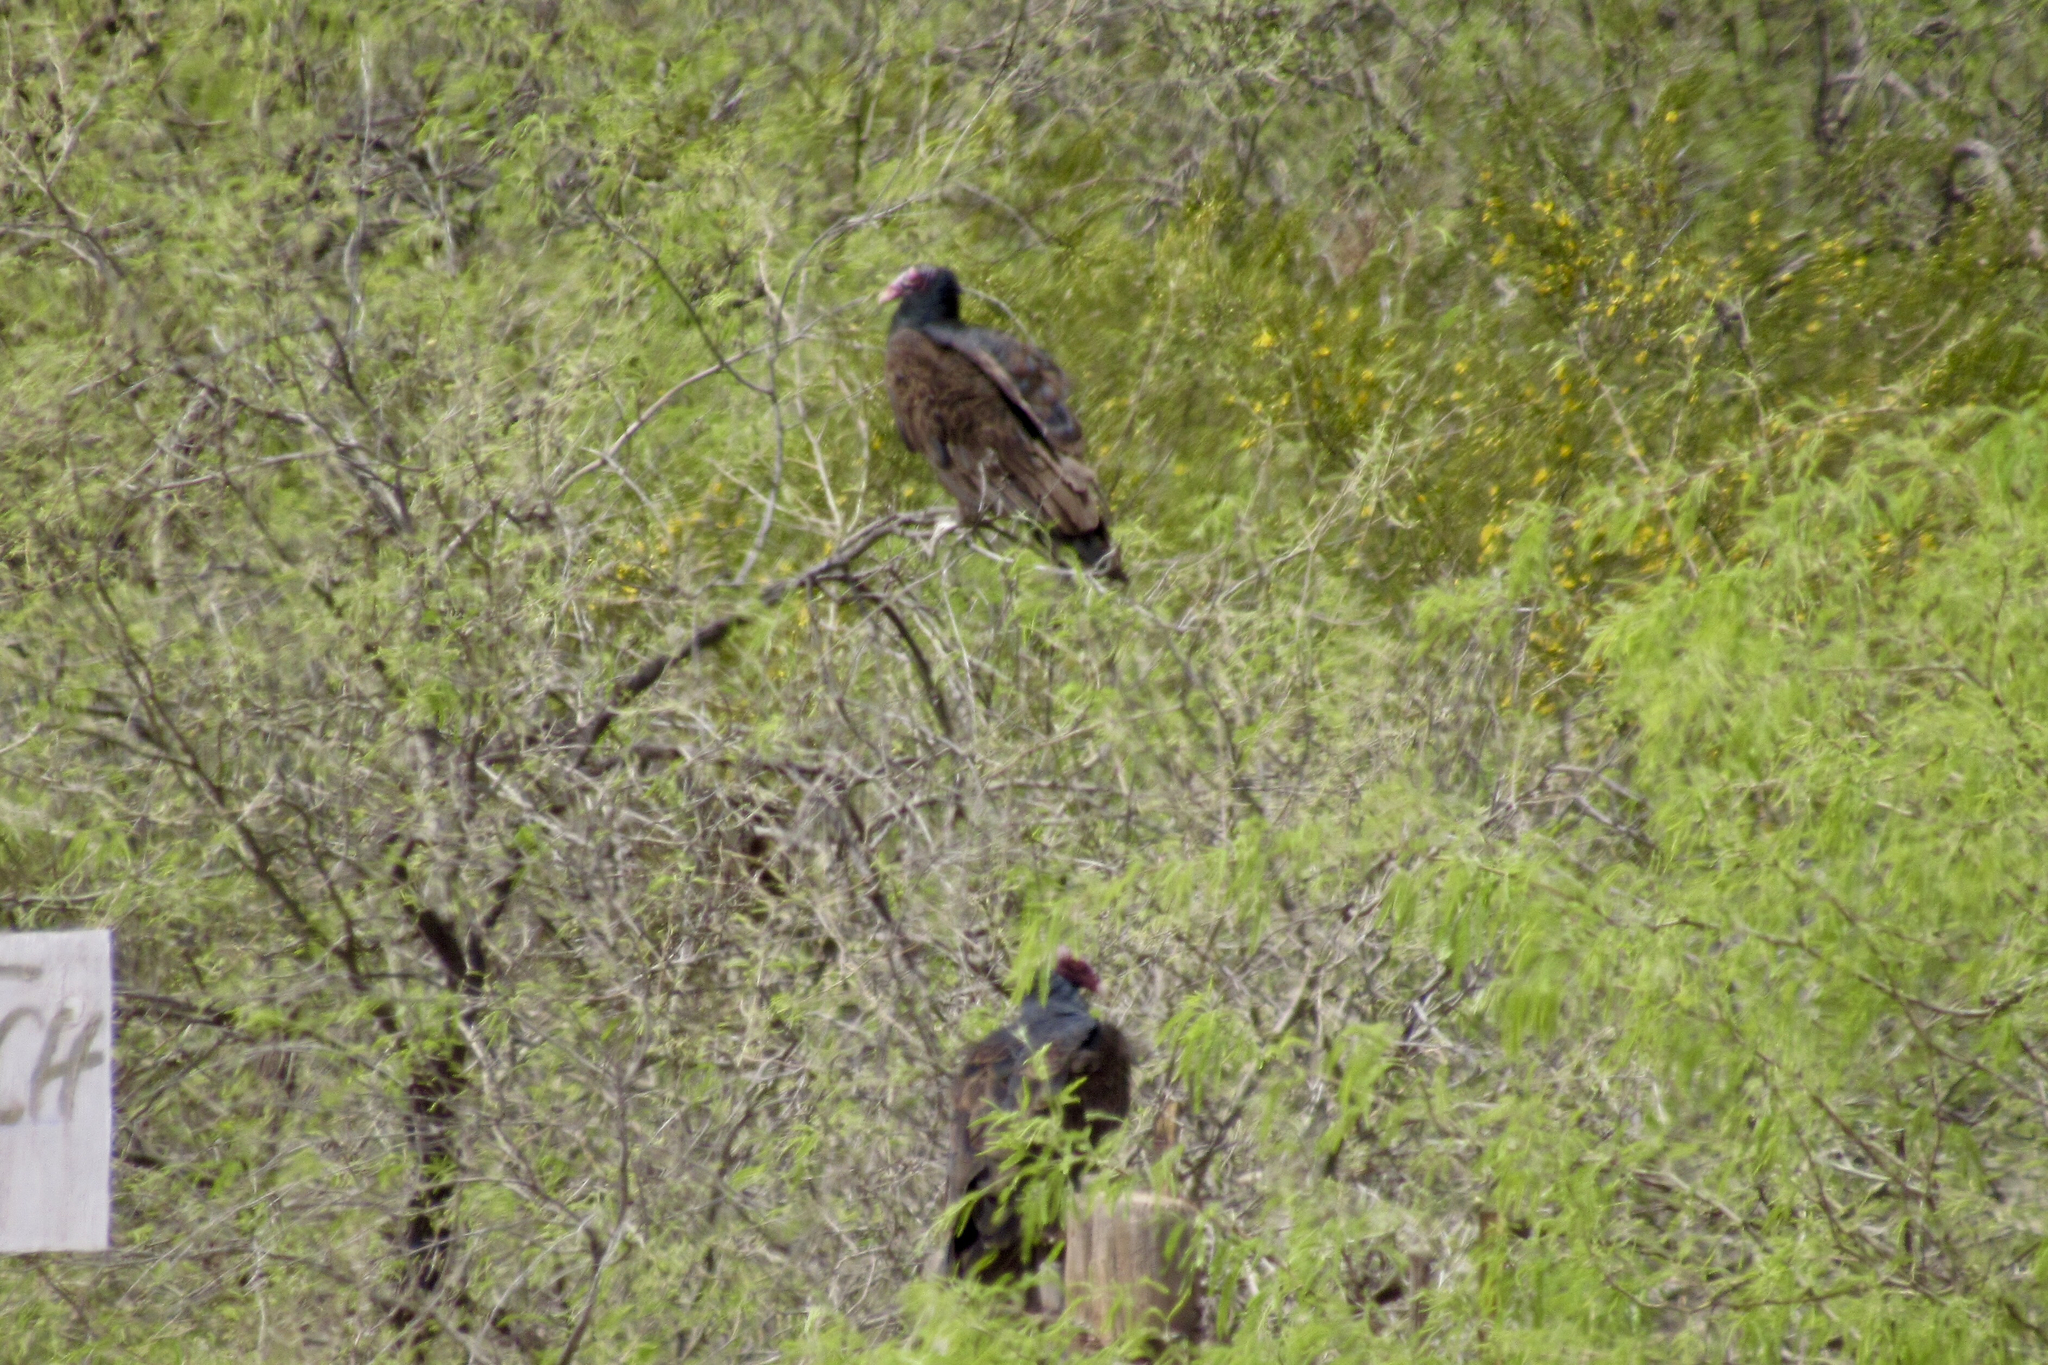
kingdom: Animalia
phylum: Chordata
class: Aves
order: Accipitriformes
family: Cathartidae
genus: Cathartes
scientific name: Cathartes aura
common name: Turkey vulture
